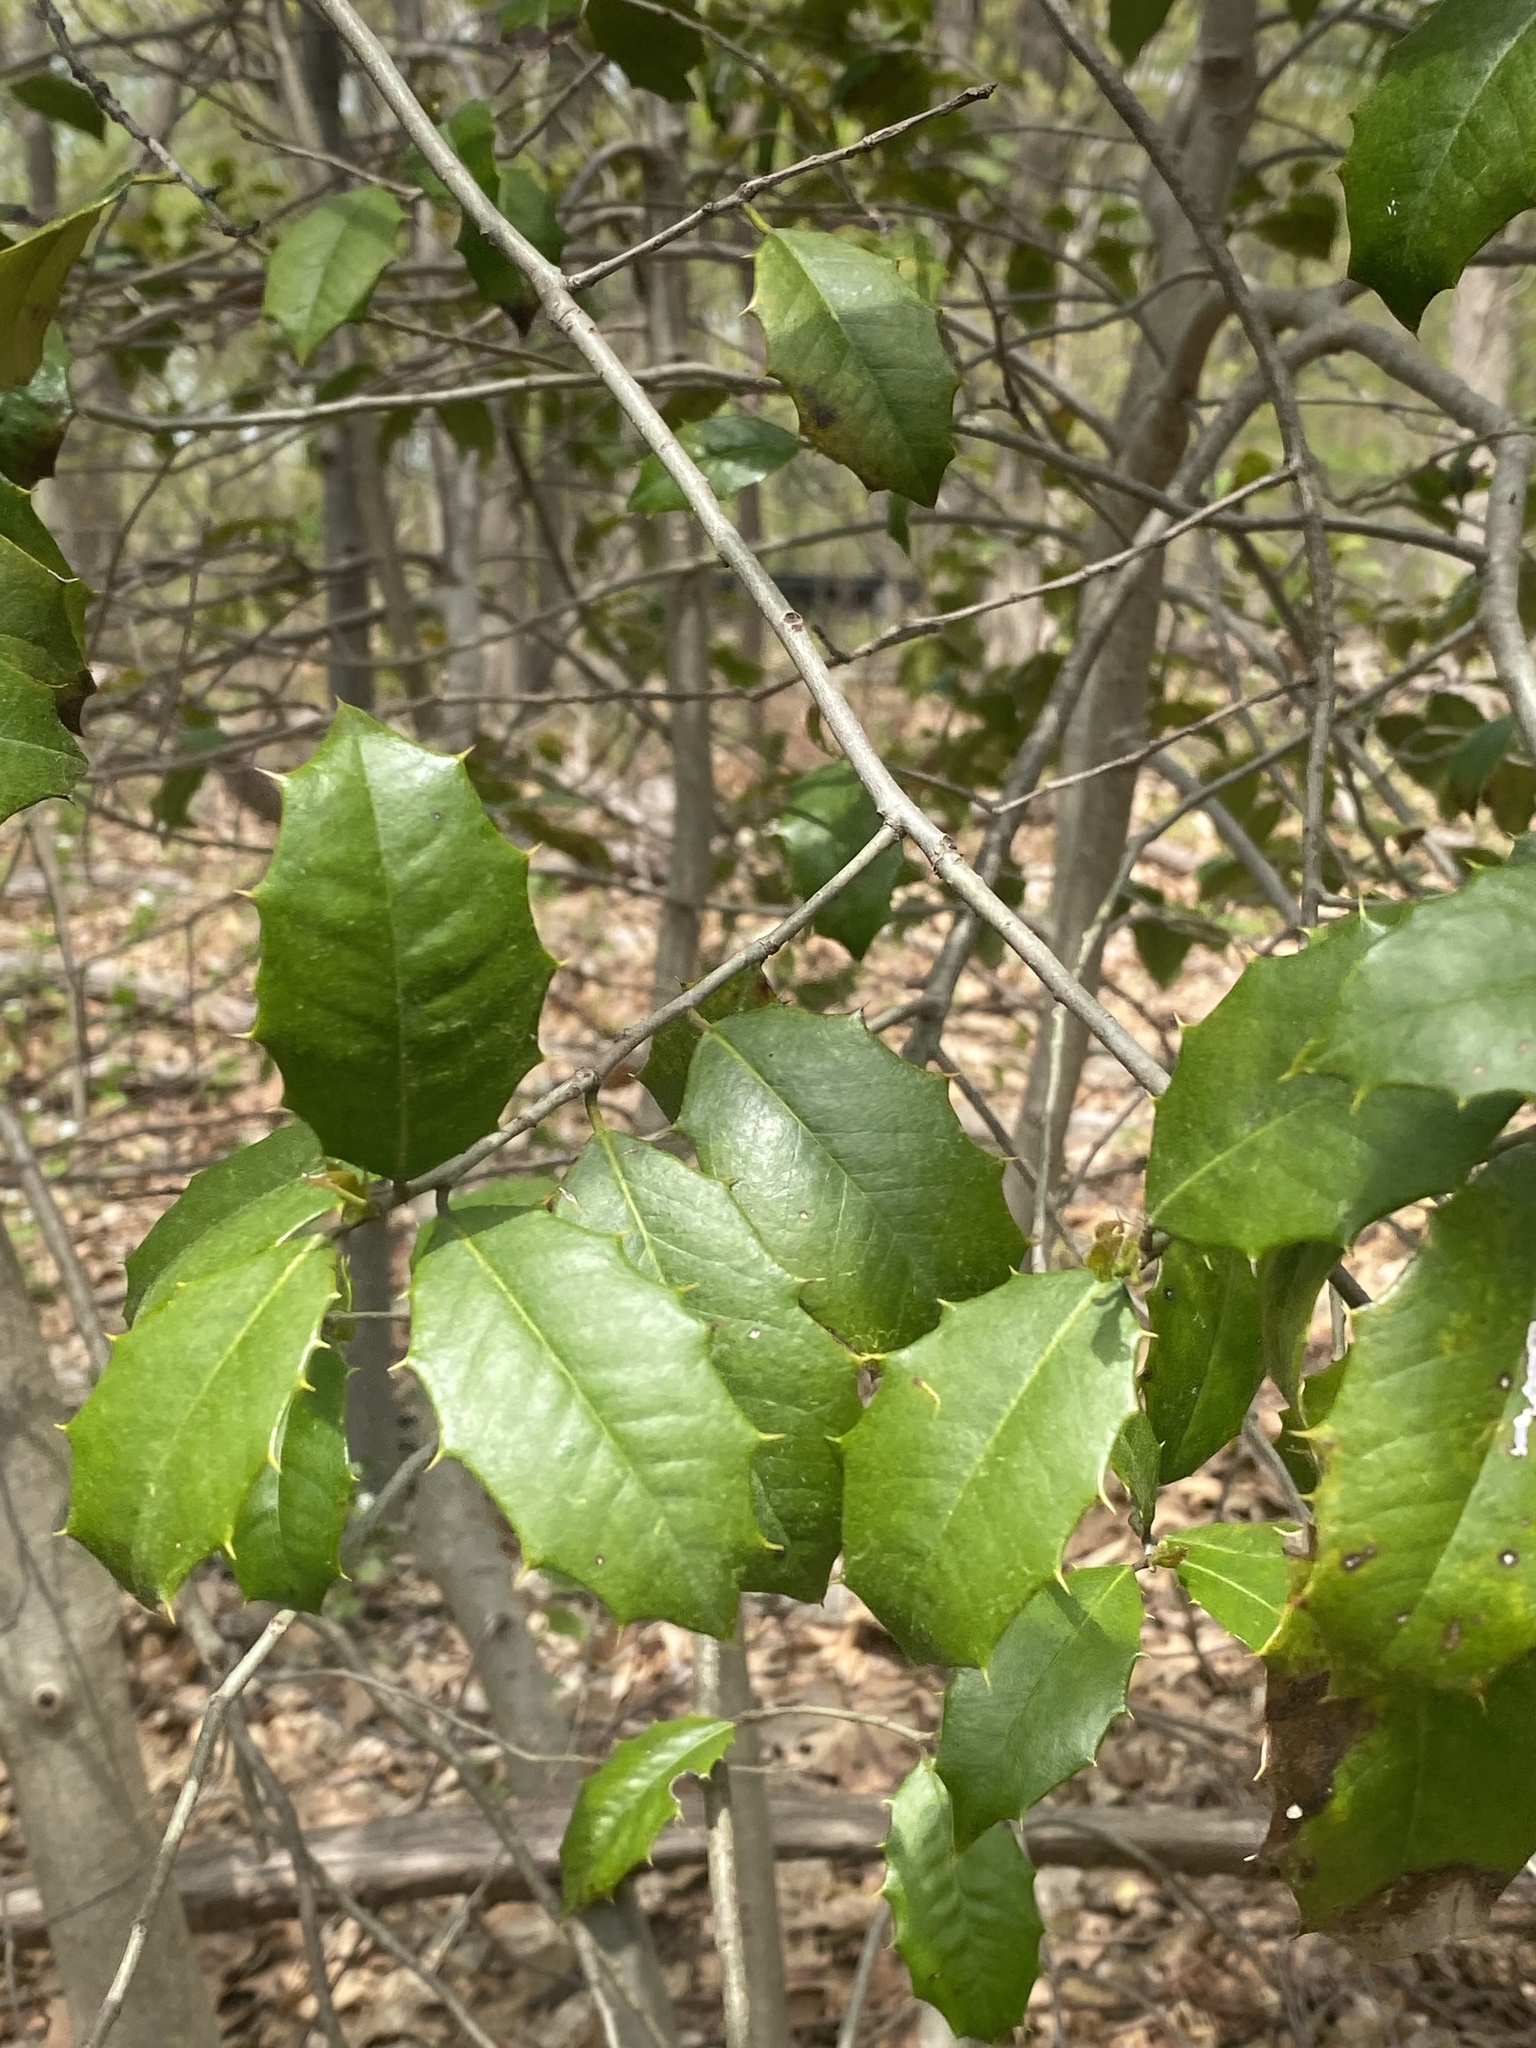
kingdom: Plantae
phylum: Tracheophyta
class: Magnoliopsida
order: Aquifoliales
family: Aquifoliaceae
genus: Ilex
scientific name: Ilex opaca
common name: American holly
